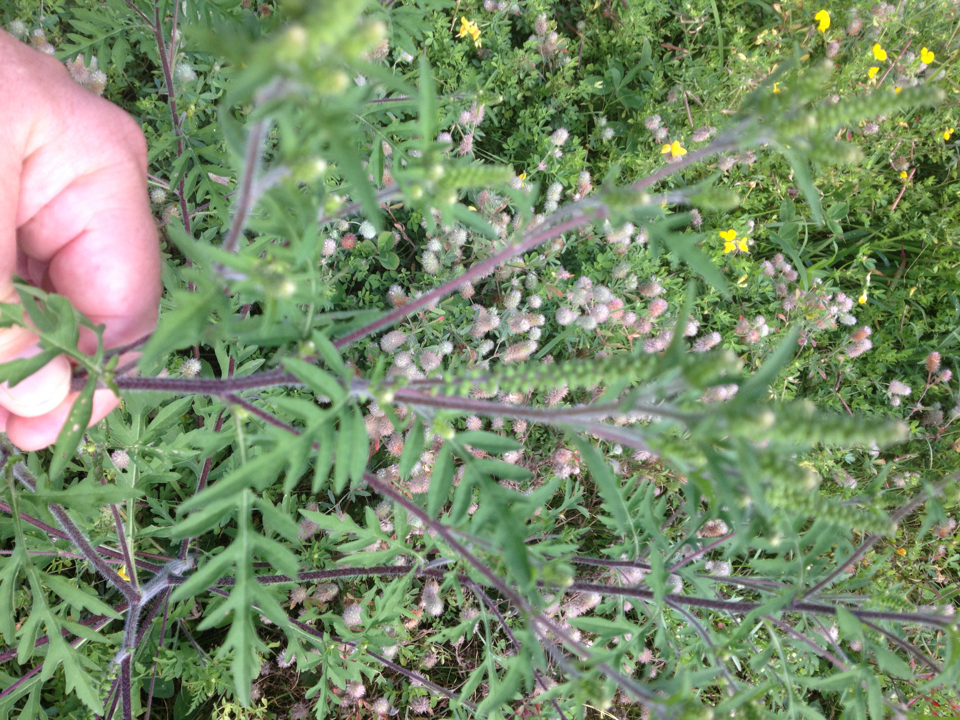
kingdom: Plantae
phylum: Tracheophyta
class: Magnoliopsida
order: Asterales
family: Asteraceae
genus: Ambrosia
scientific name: Ambrosia artemisiifolia
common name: Annual ragweed
